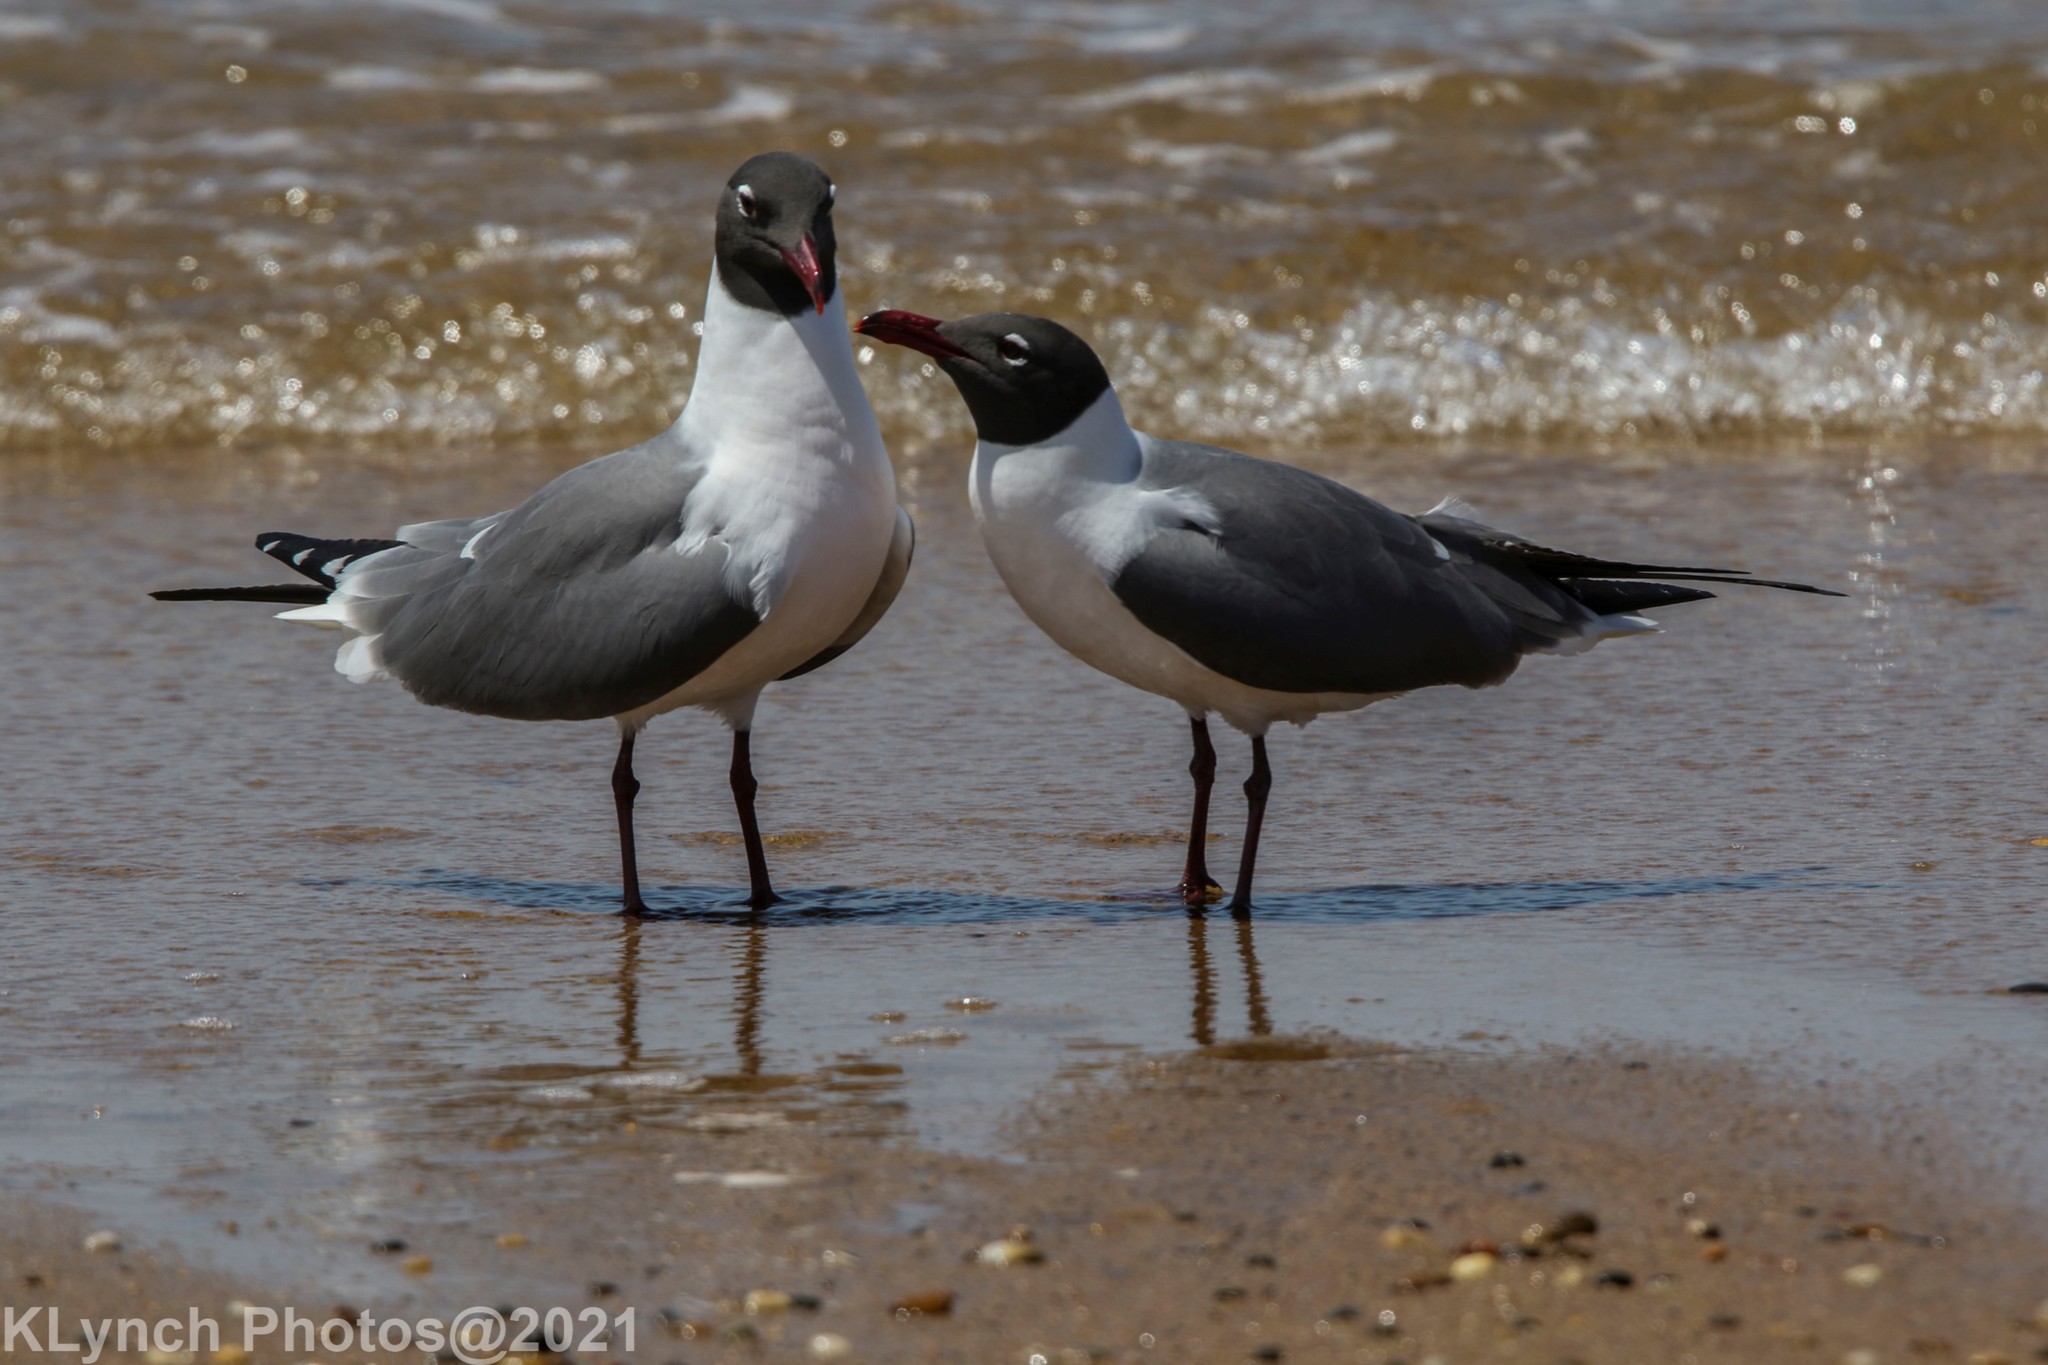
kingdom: Animalia
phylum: Chordata
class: Aves
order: Charadriiformes
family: Laridae
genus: Leucophaeus
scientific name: Leucophaeus atricilla
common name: Laughing gull
